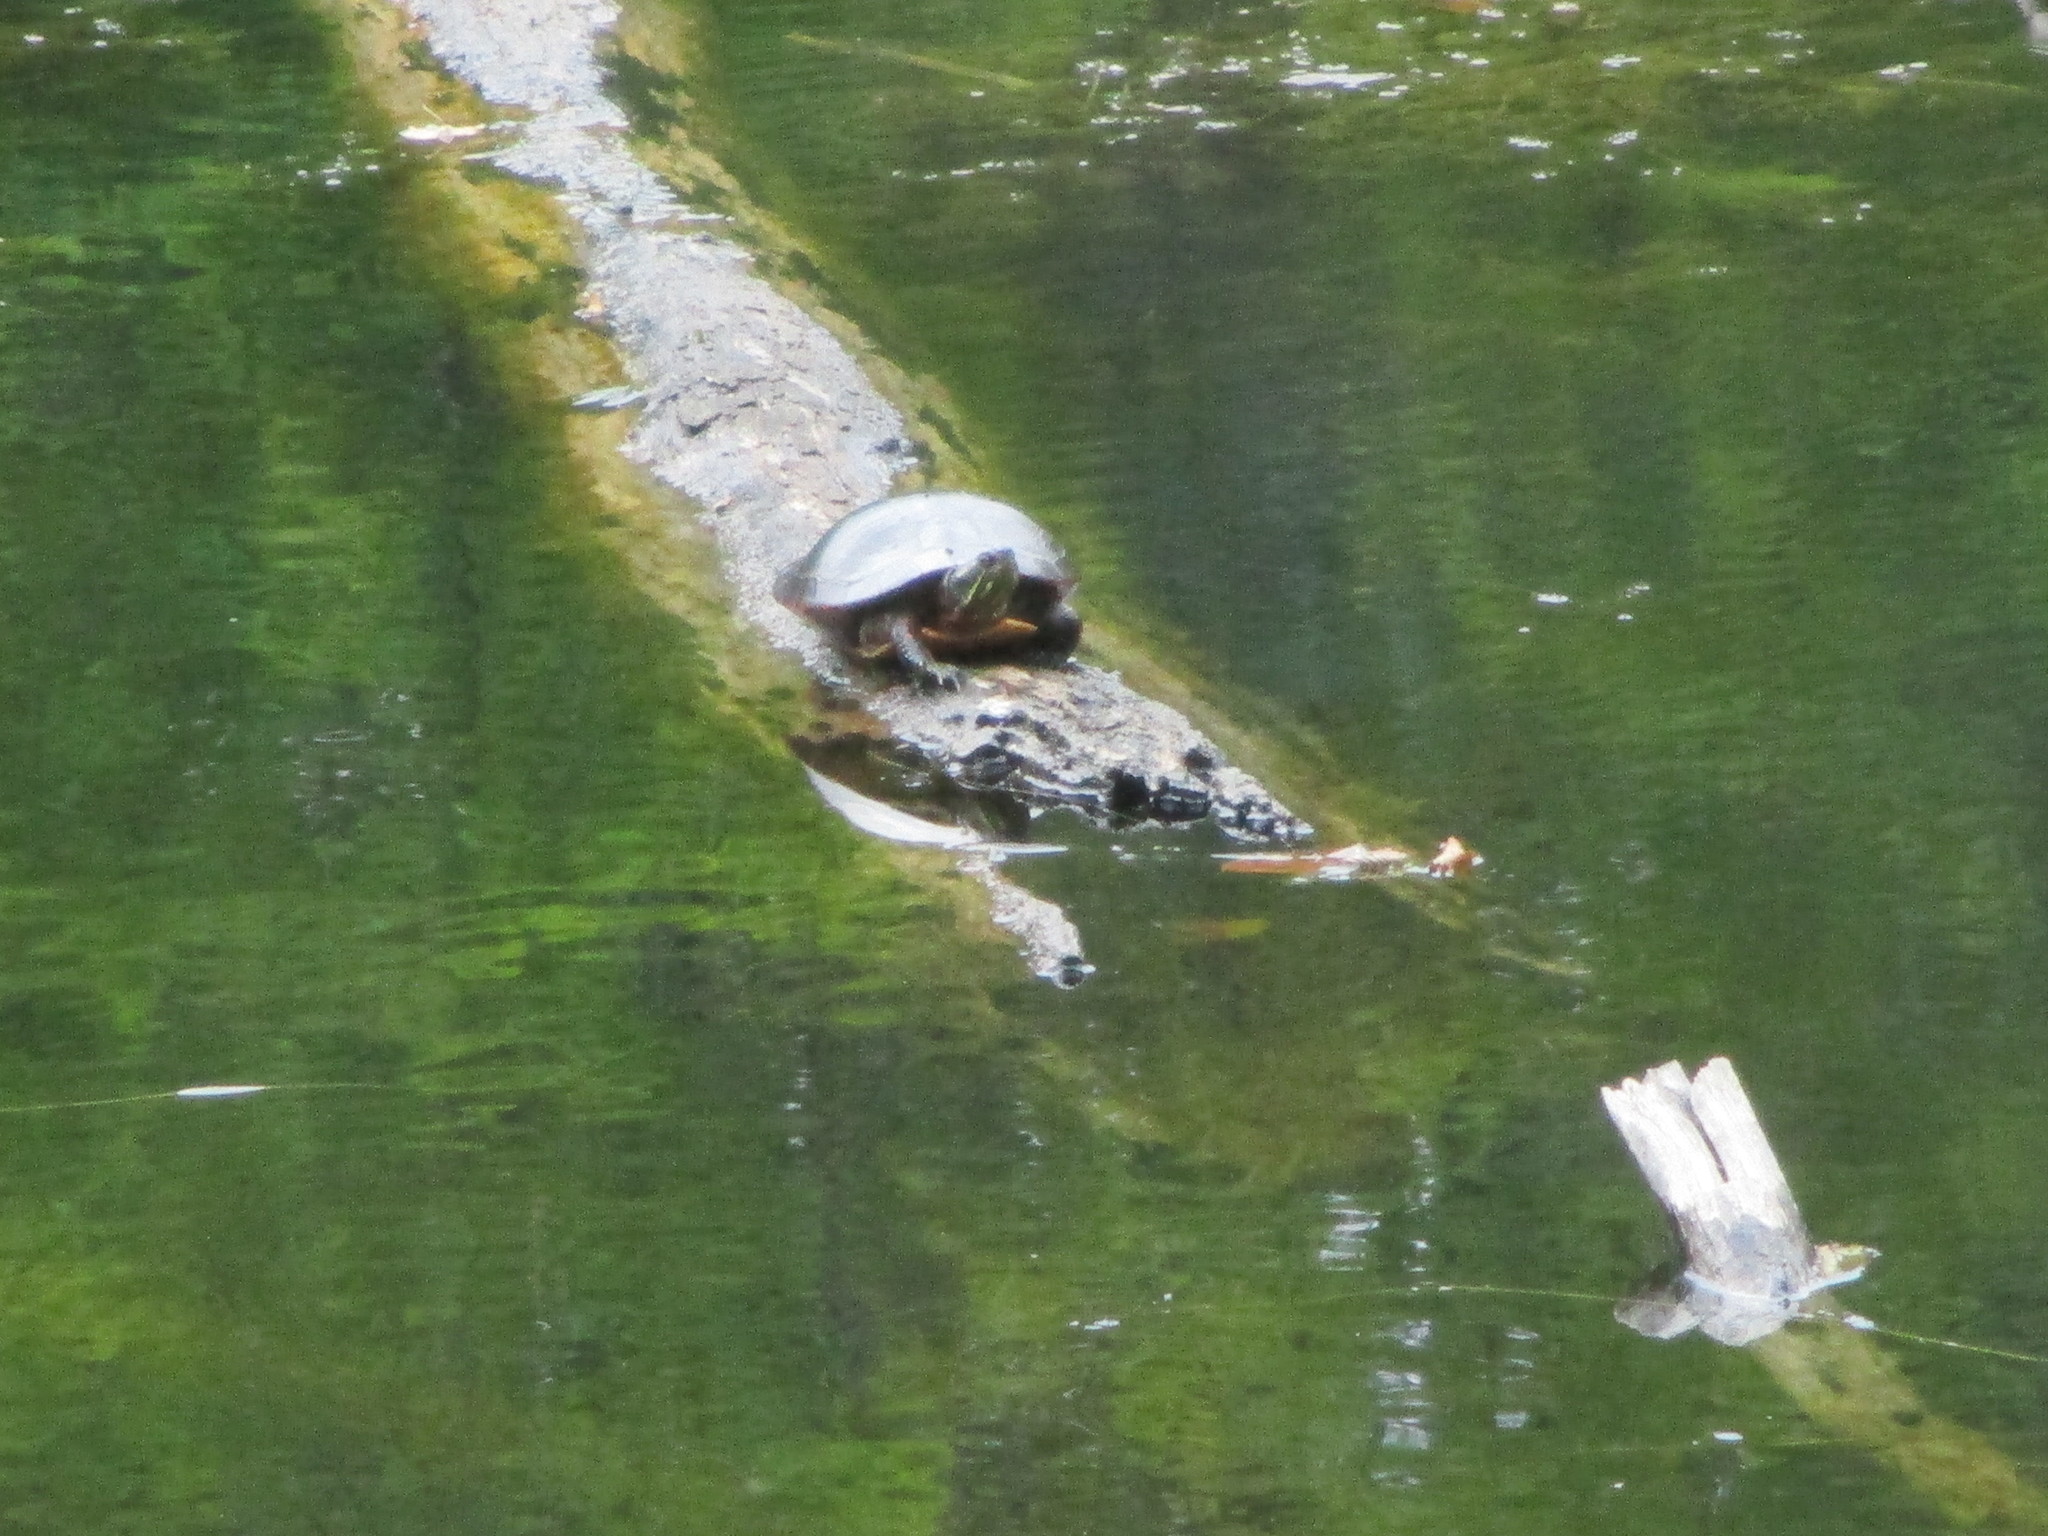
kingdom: Animalia
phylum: Chordata
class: Testudines
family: Emydidae
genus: Chrysemys
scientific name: Chrysemys picta
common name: Painted turtle
